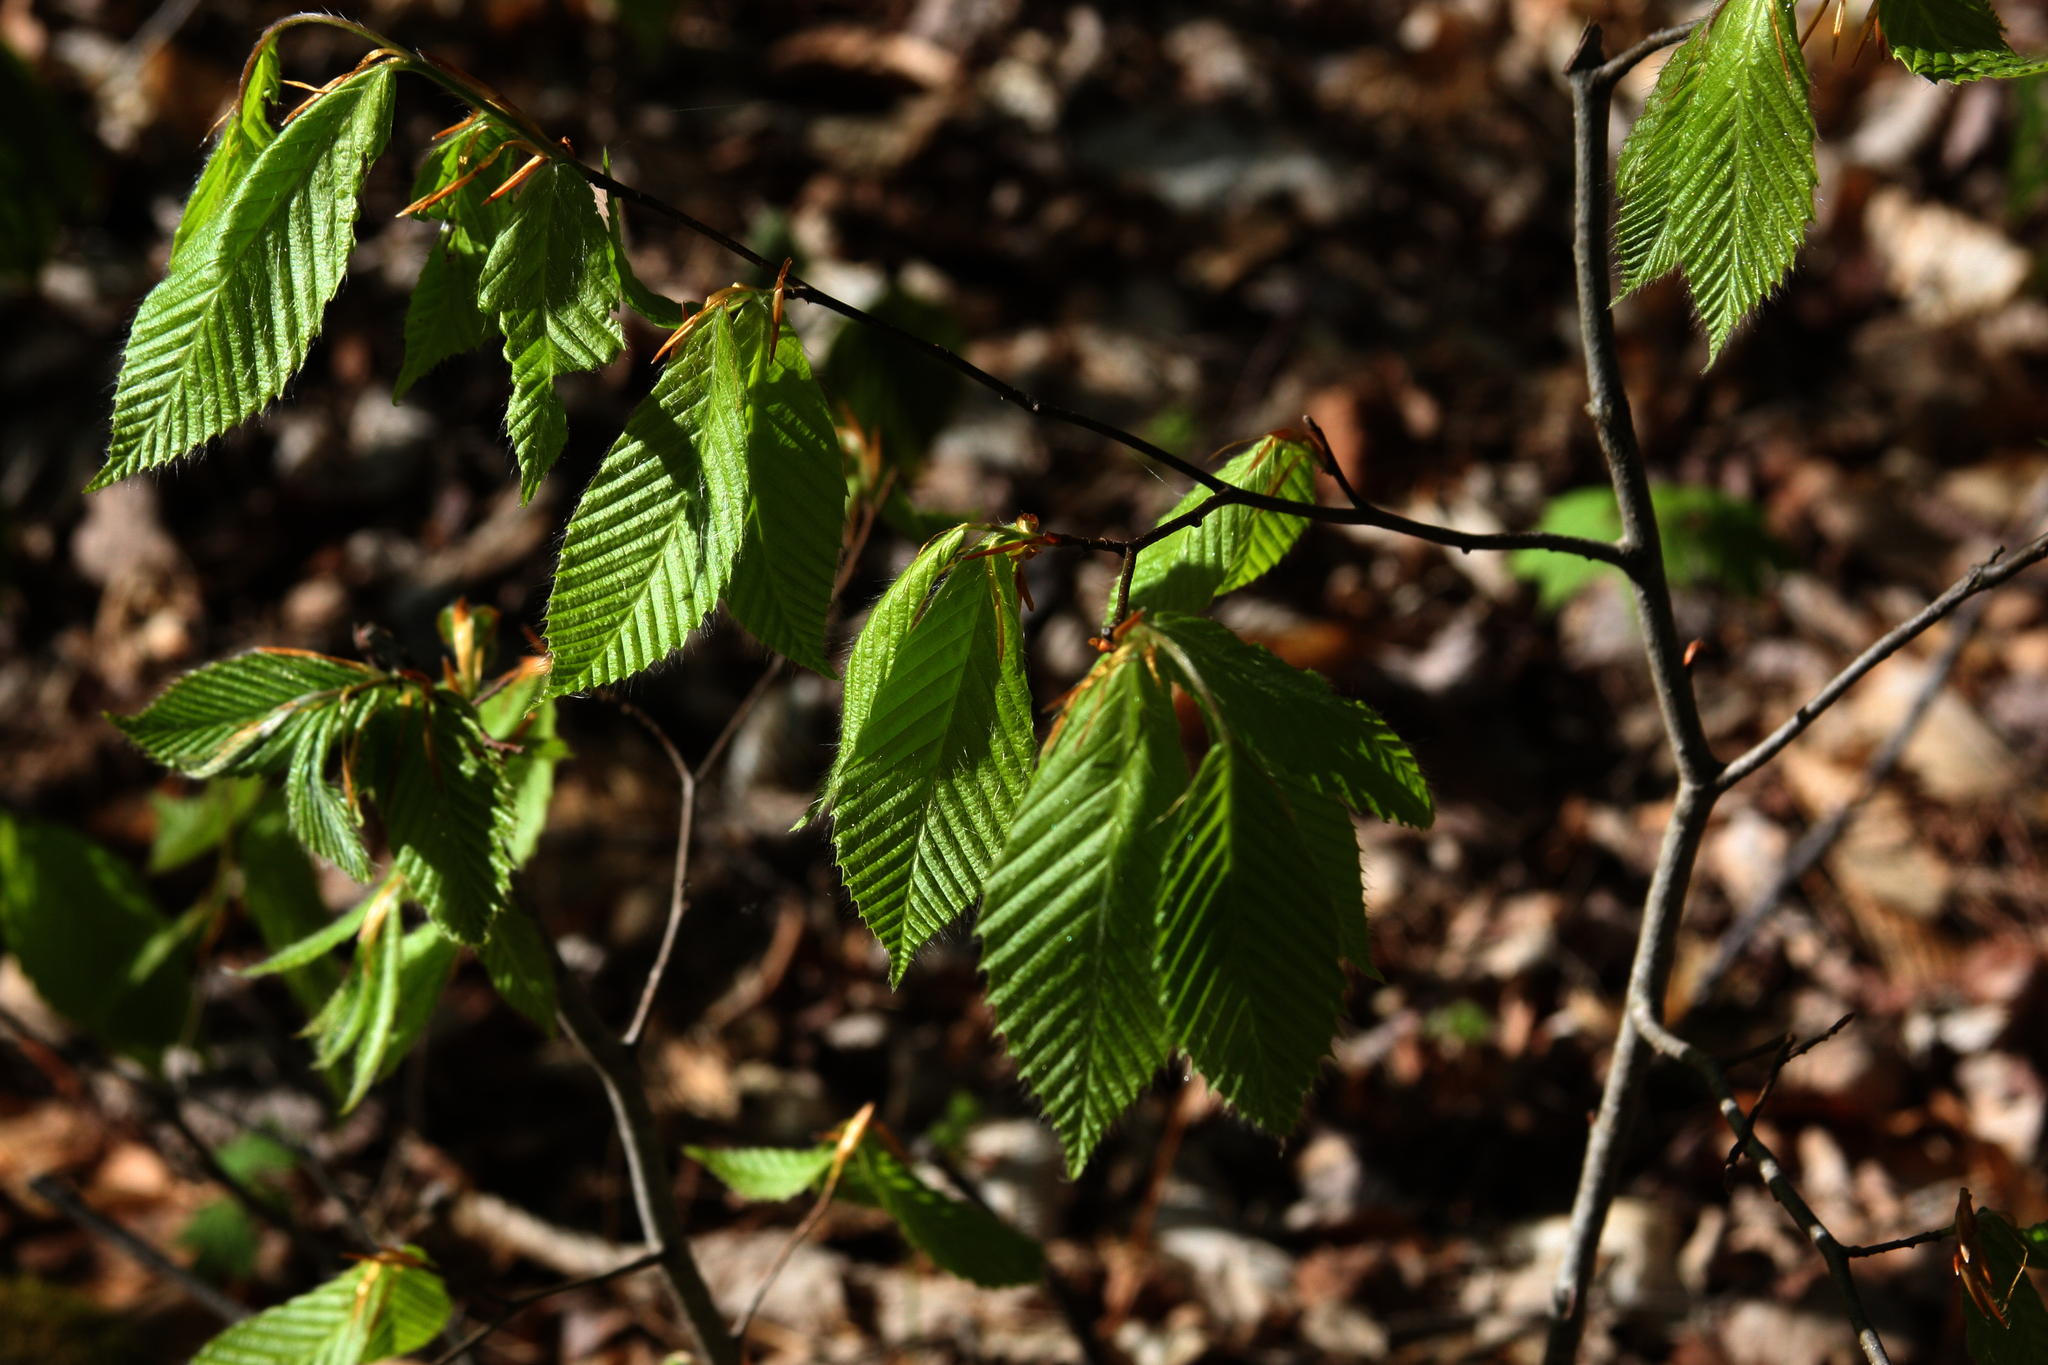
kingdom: Plantae
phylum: Tracheophyta
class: Magnoliopsida
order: Fagales
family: Fagaceae
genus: Fagus
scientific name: Fagus grandifolia
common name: American beech
